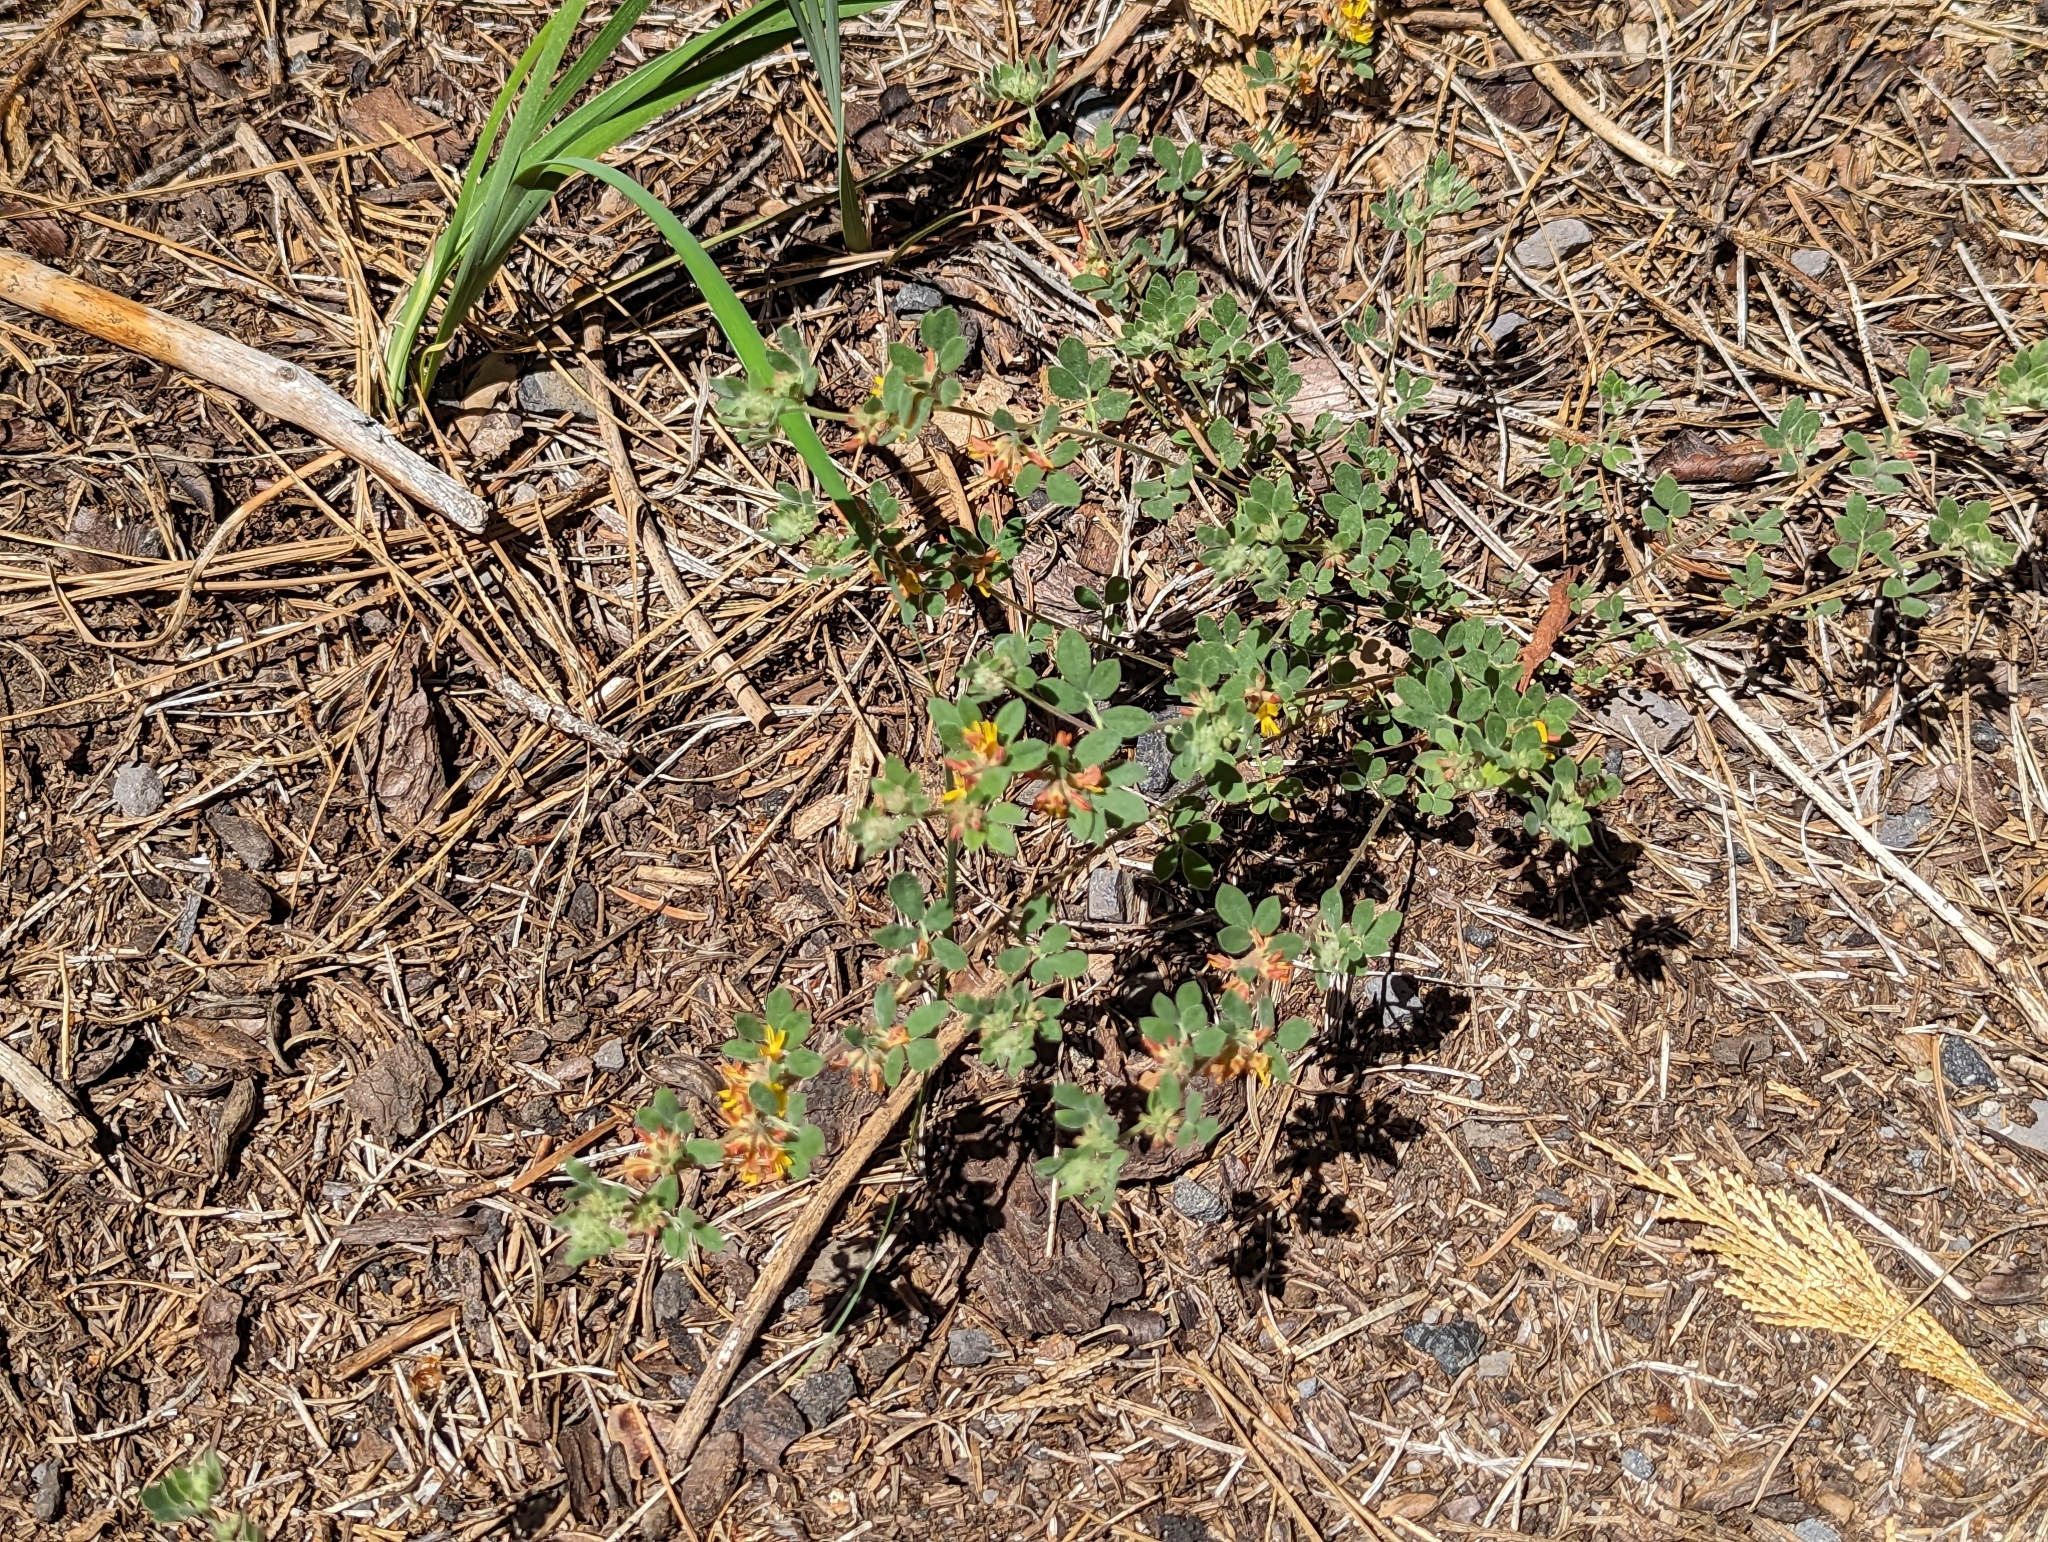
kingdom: Plantae
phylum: Tracheophyta
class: Magnoliopsida
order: Fabales
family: Fabaceae
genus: Acmispon
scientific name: Acmispon decumbens
